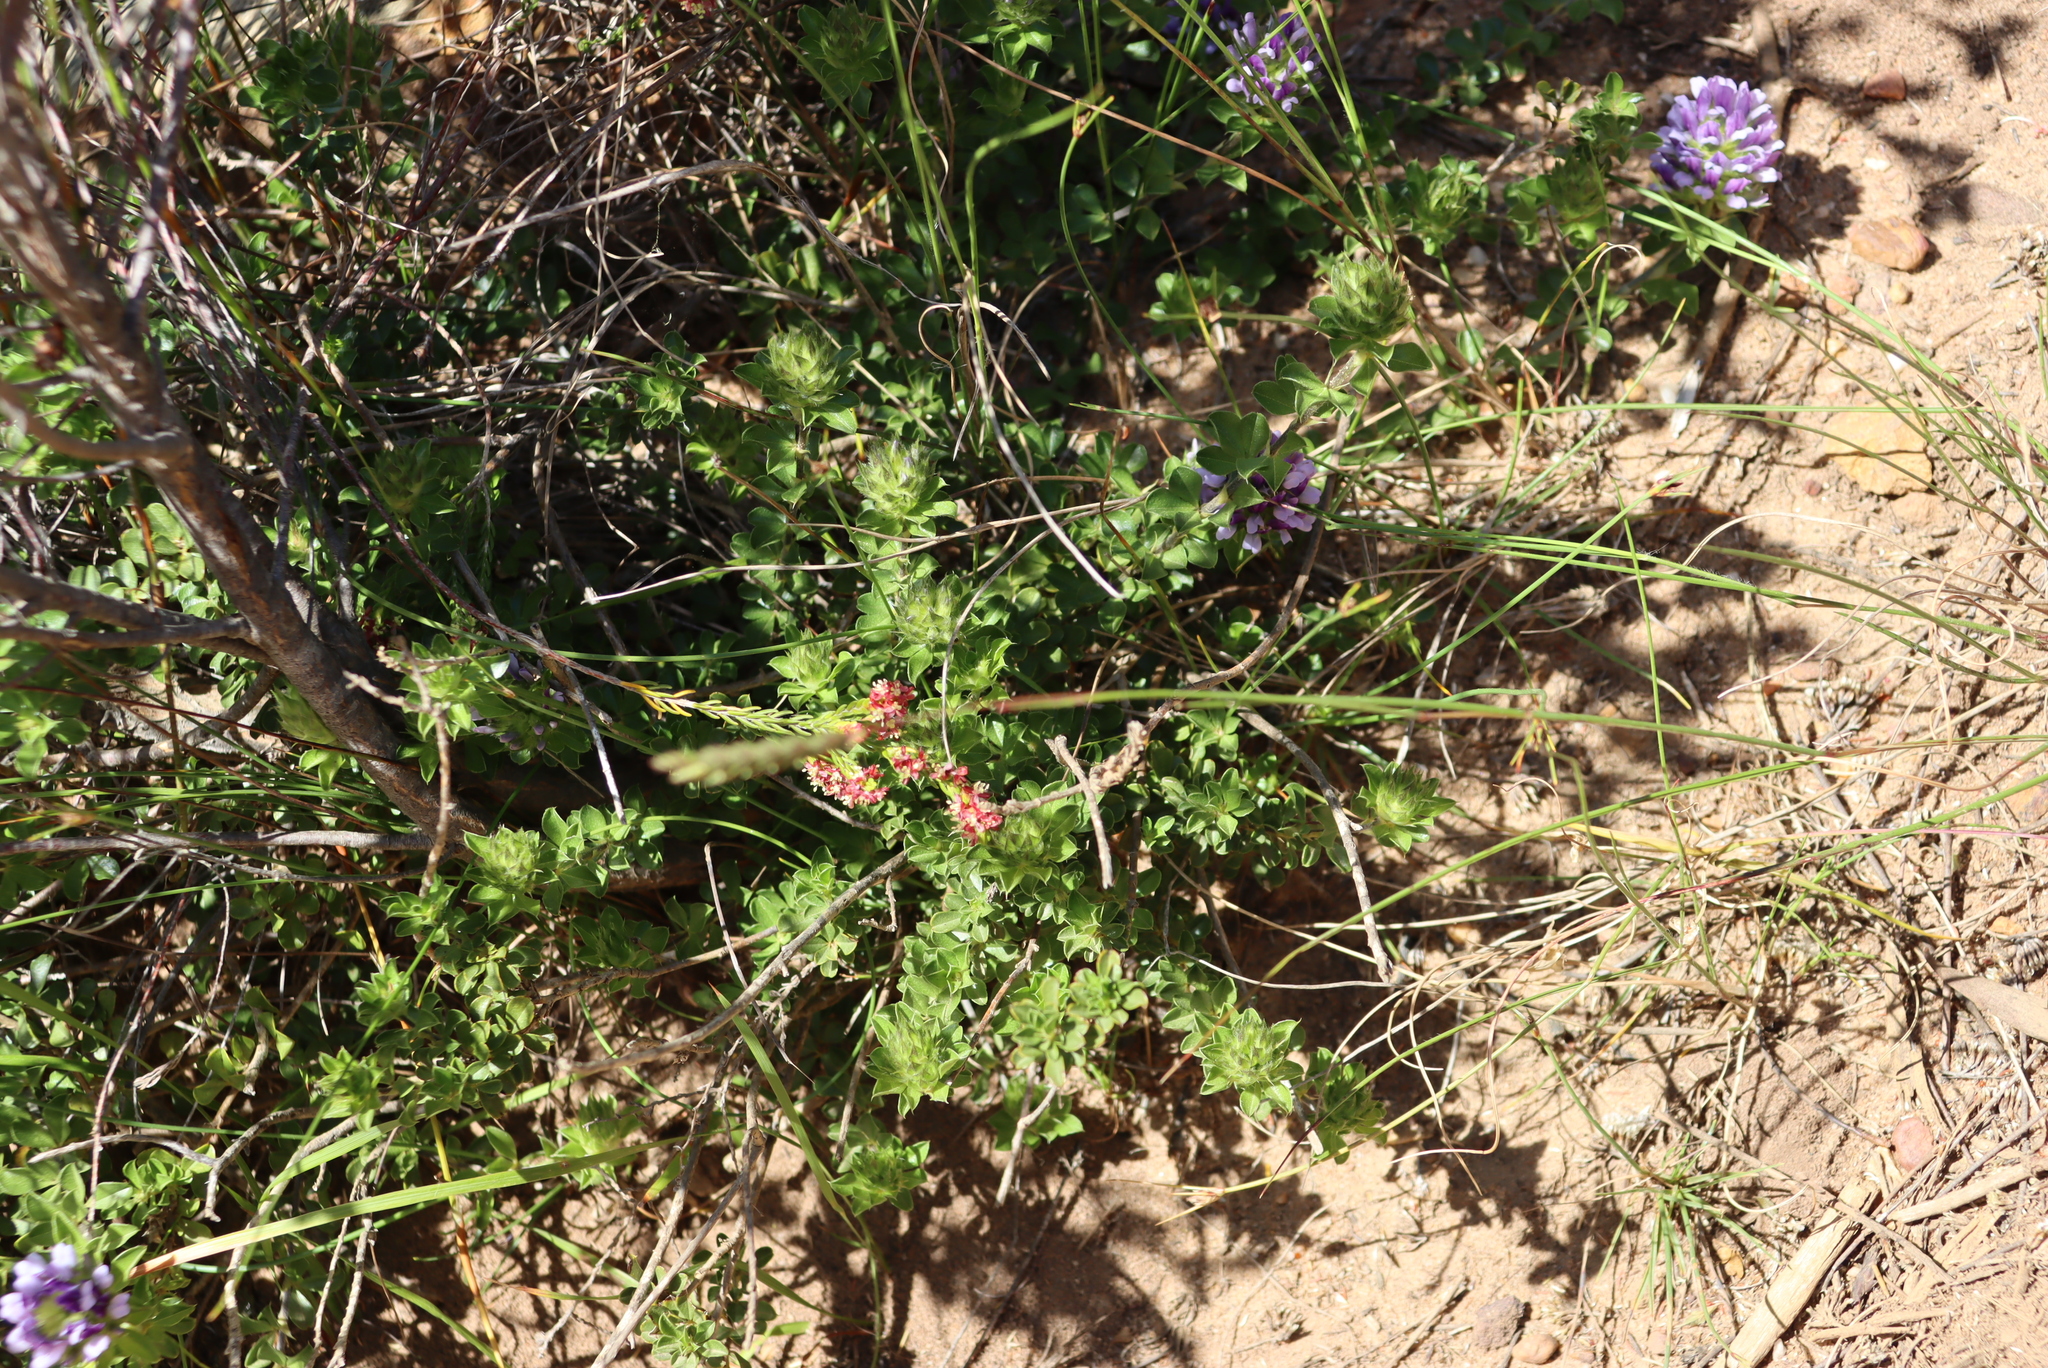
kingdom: Plantae
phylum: Tracheophyta
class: Magnoliopsida
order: Fabales
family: Fabaceae
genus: Psoralea
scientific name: Psoralea fruticans
